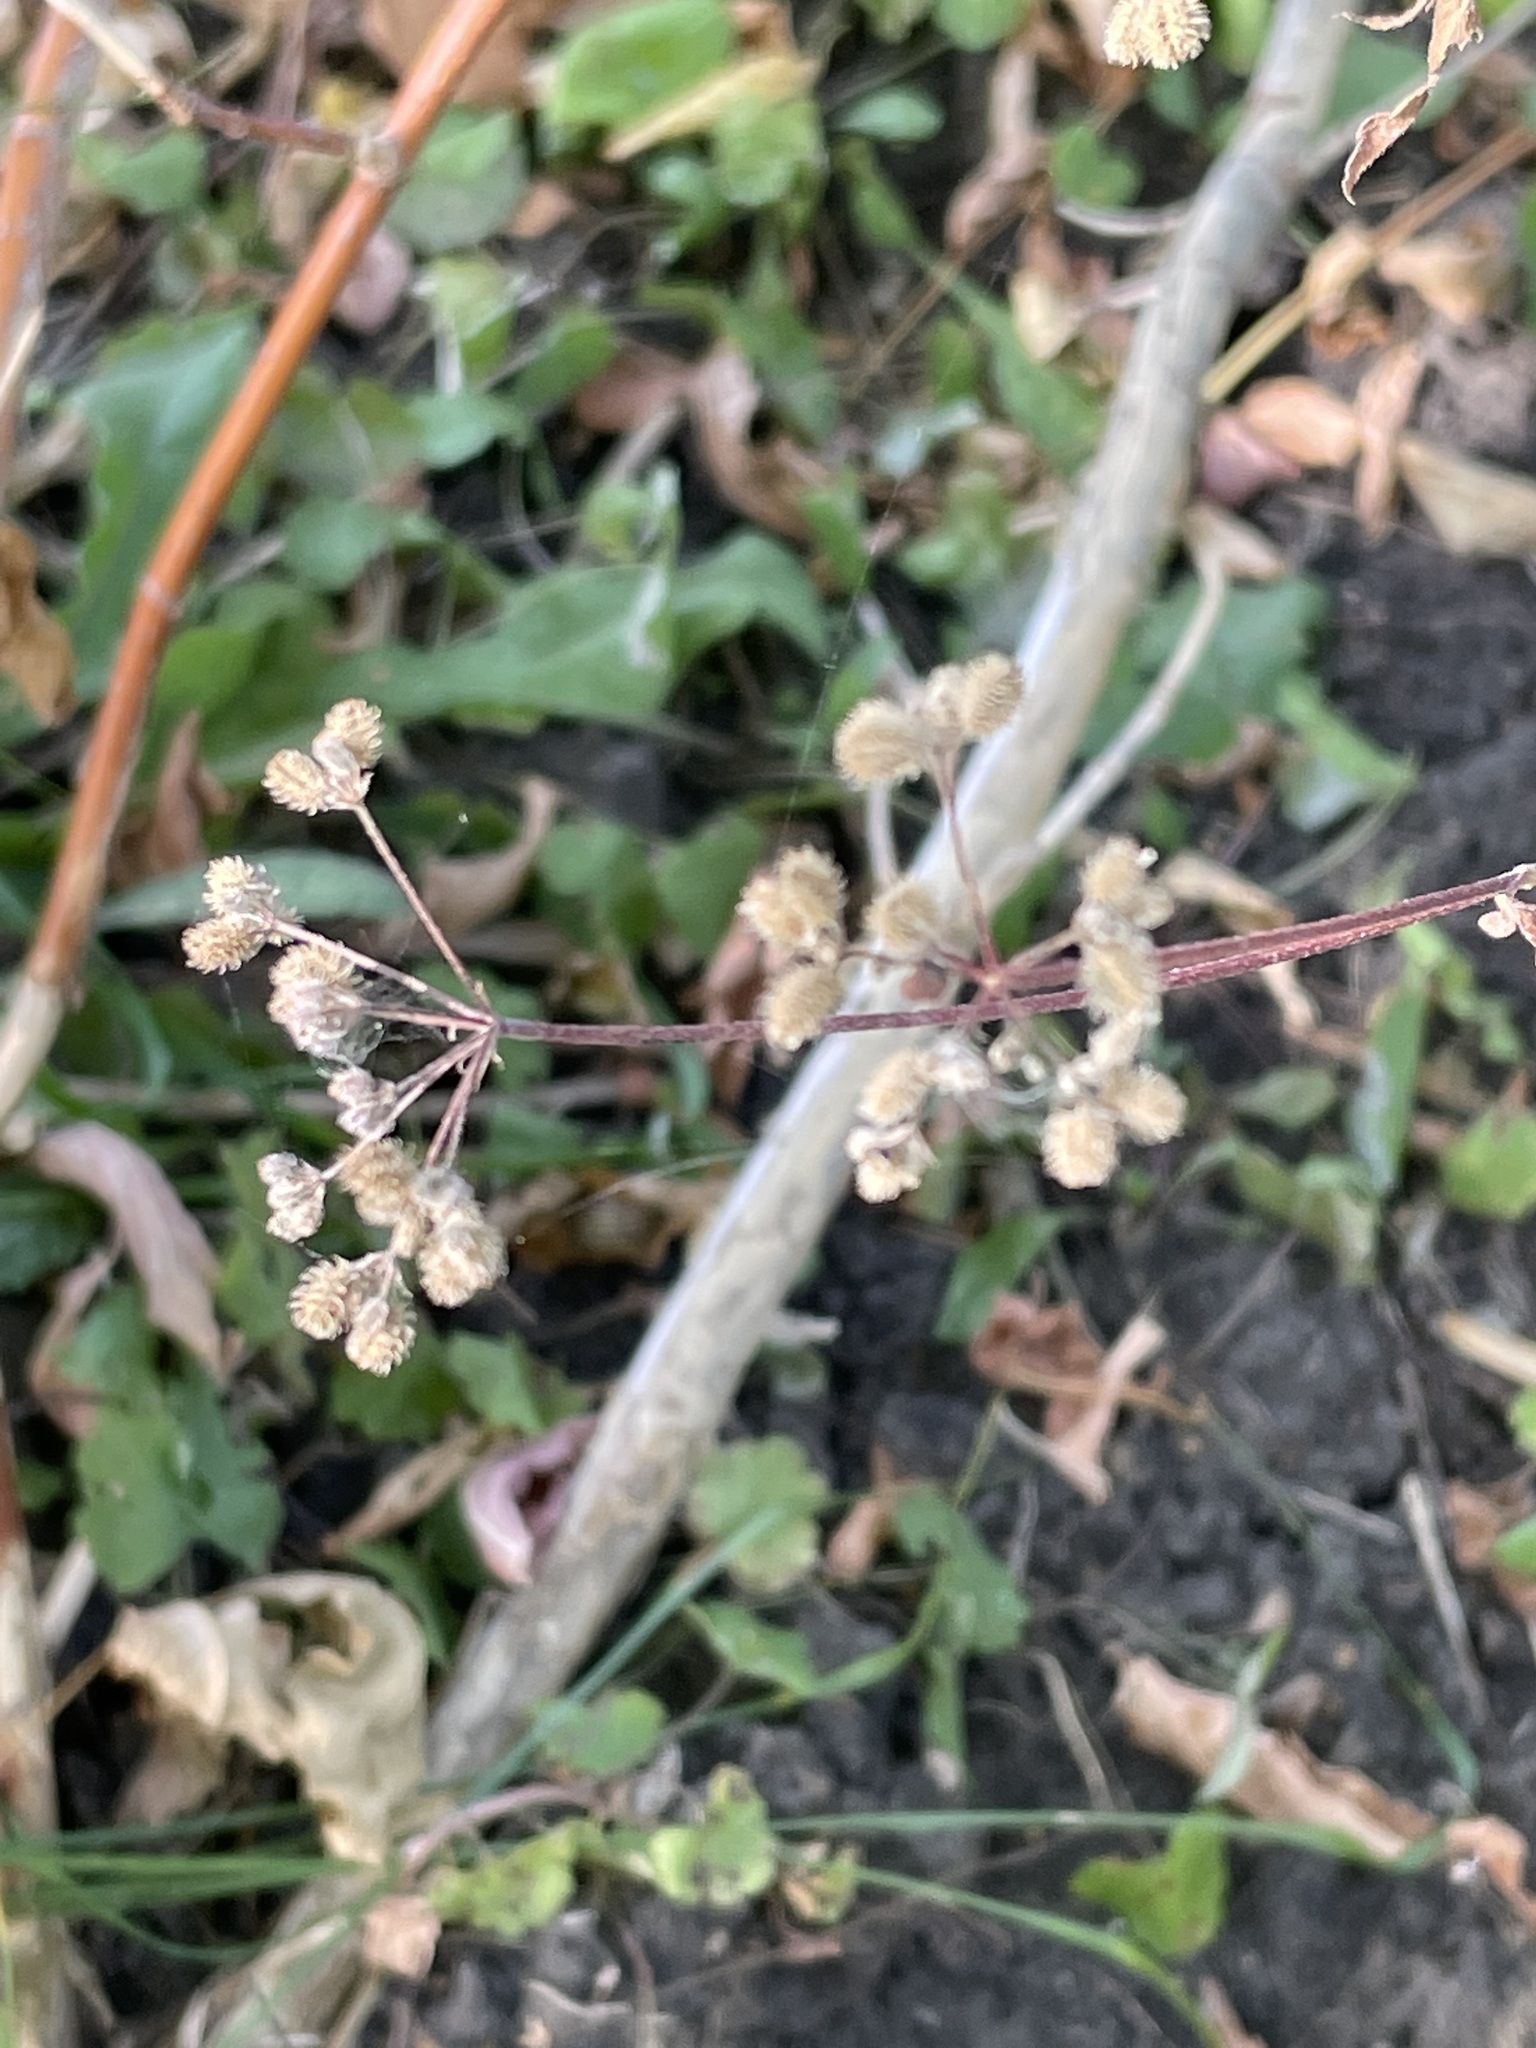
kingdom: Plantae
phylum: Tracheophyta
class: Magnoliopsida
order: Apiales
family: Apiaceae
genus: Torilis
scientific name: Torilis japonica
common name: Upright hedge-parsley
